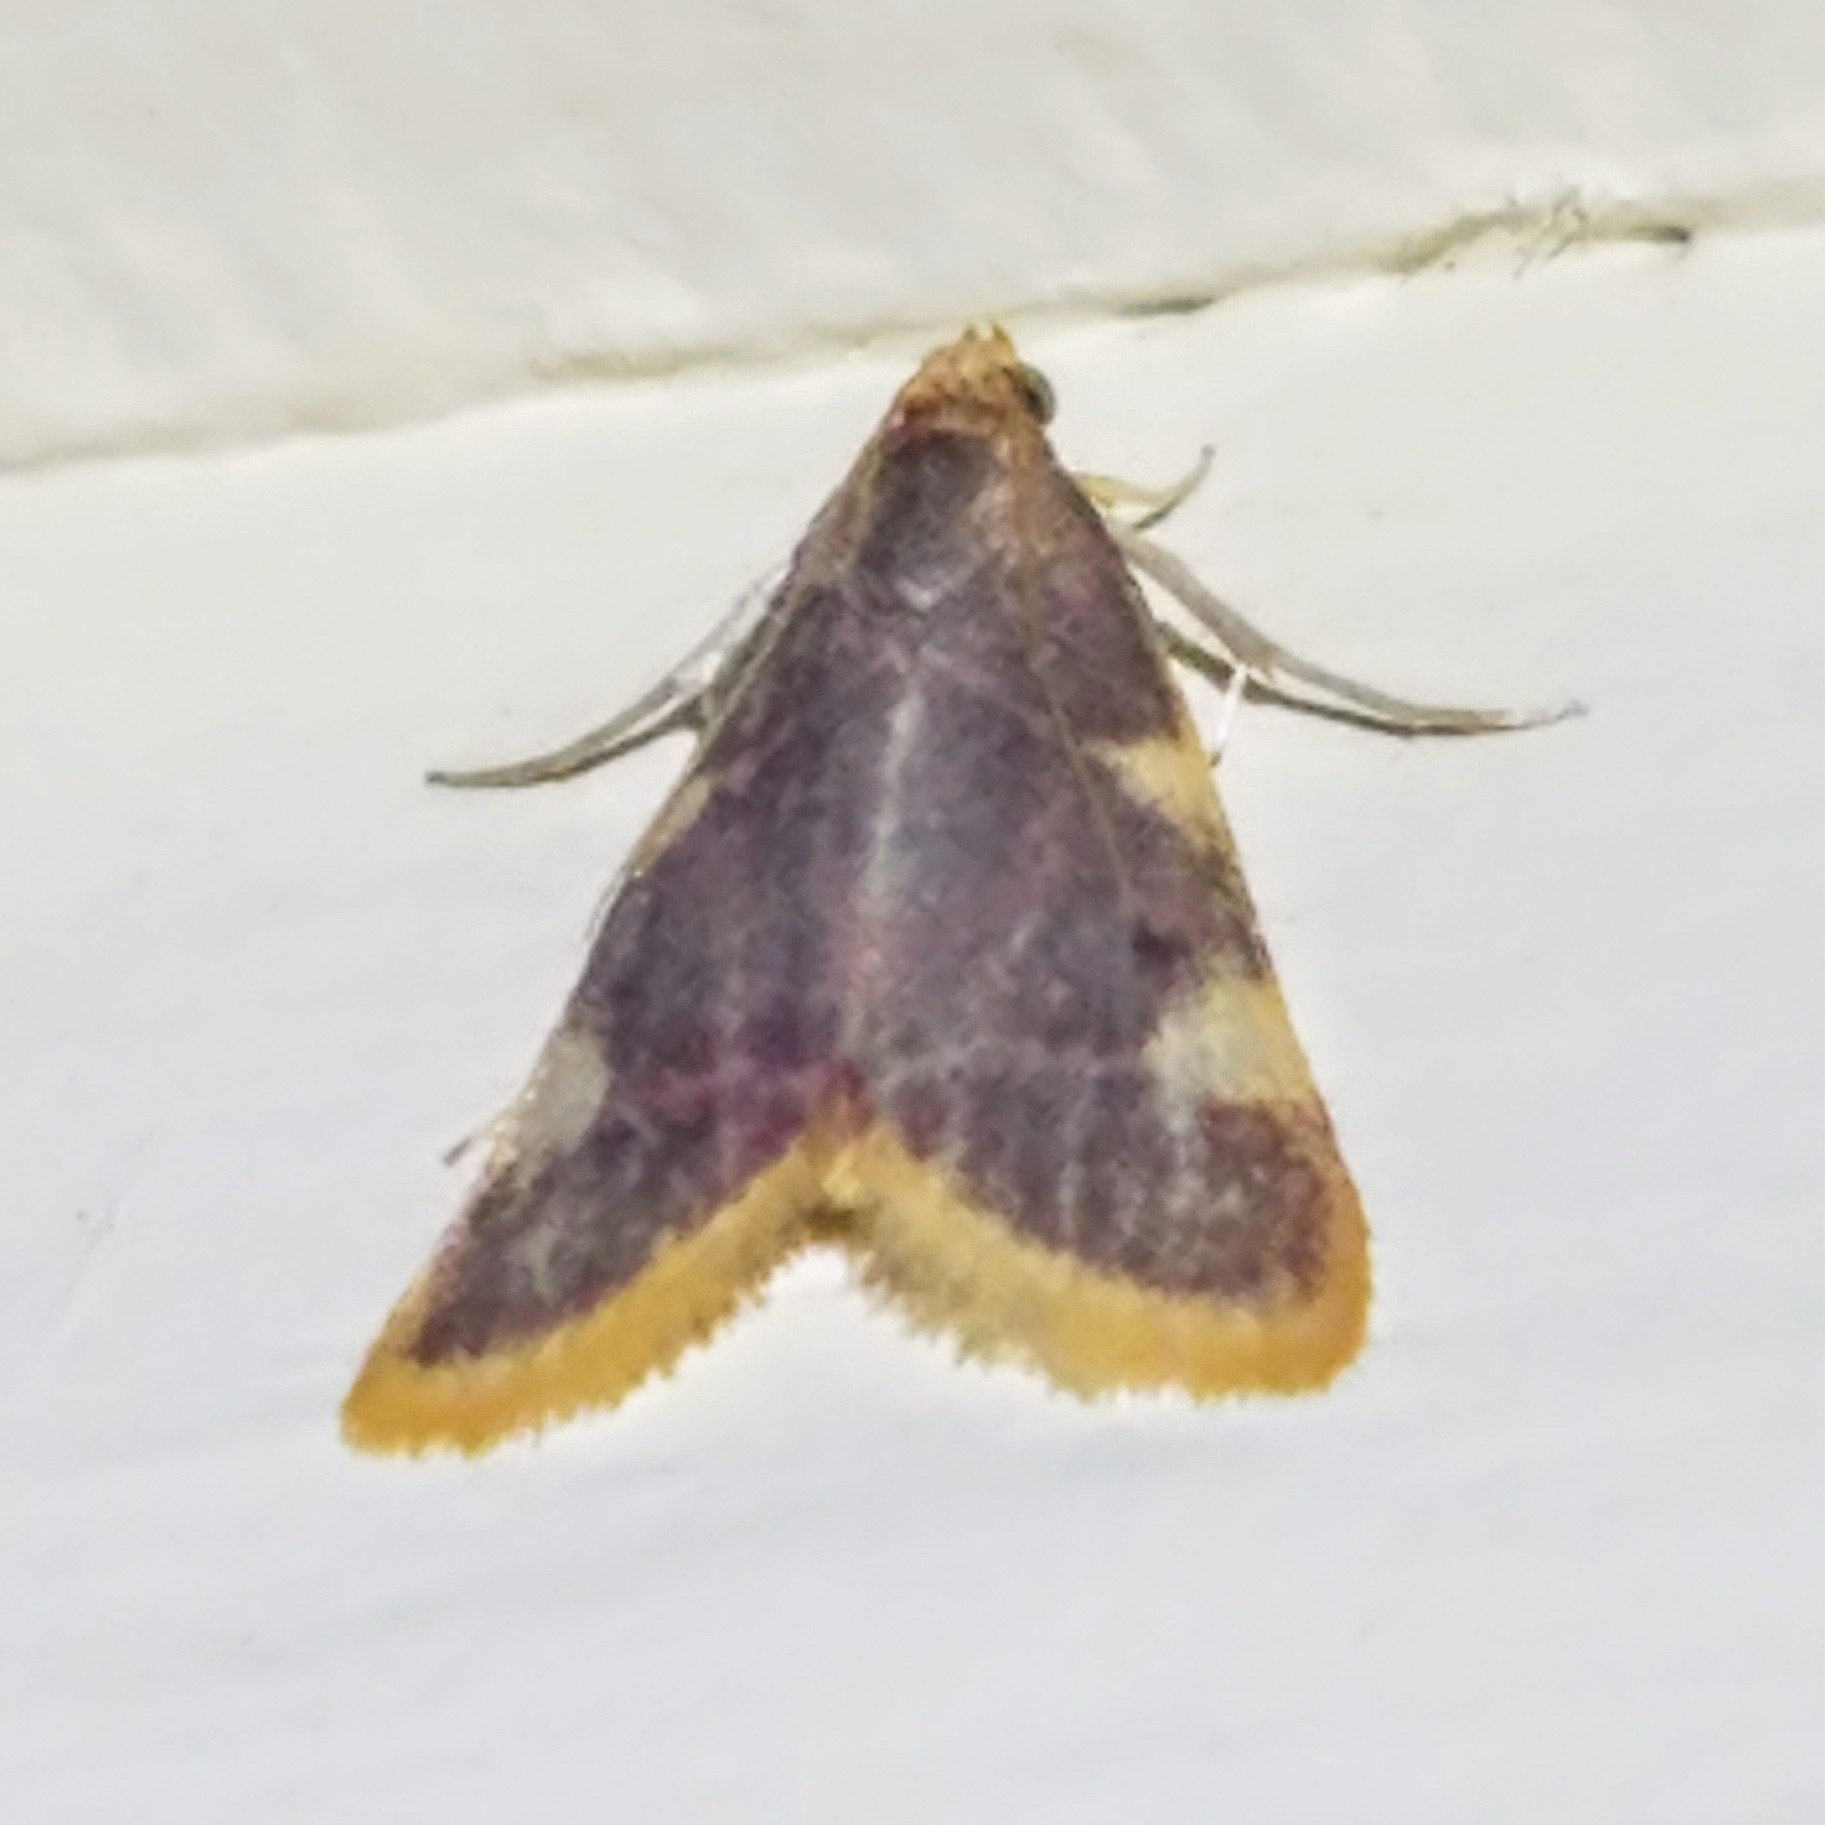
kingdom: Animalia
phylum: Arthropoda
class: Insecta
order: Lepidoptera
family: Pyralidae
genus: Hypsopygia
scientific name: Hypsopygia costalis
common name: Gold triangle
